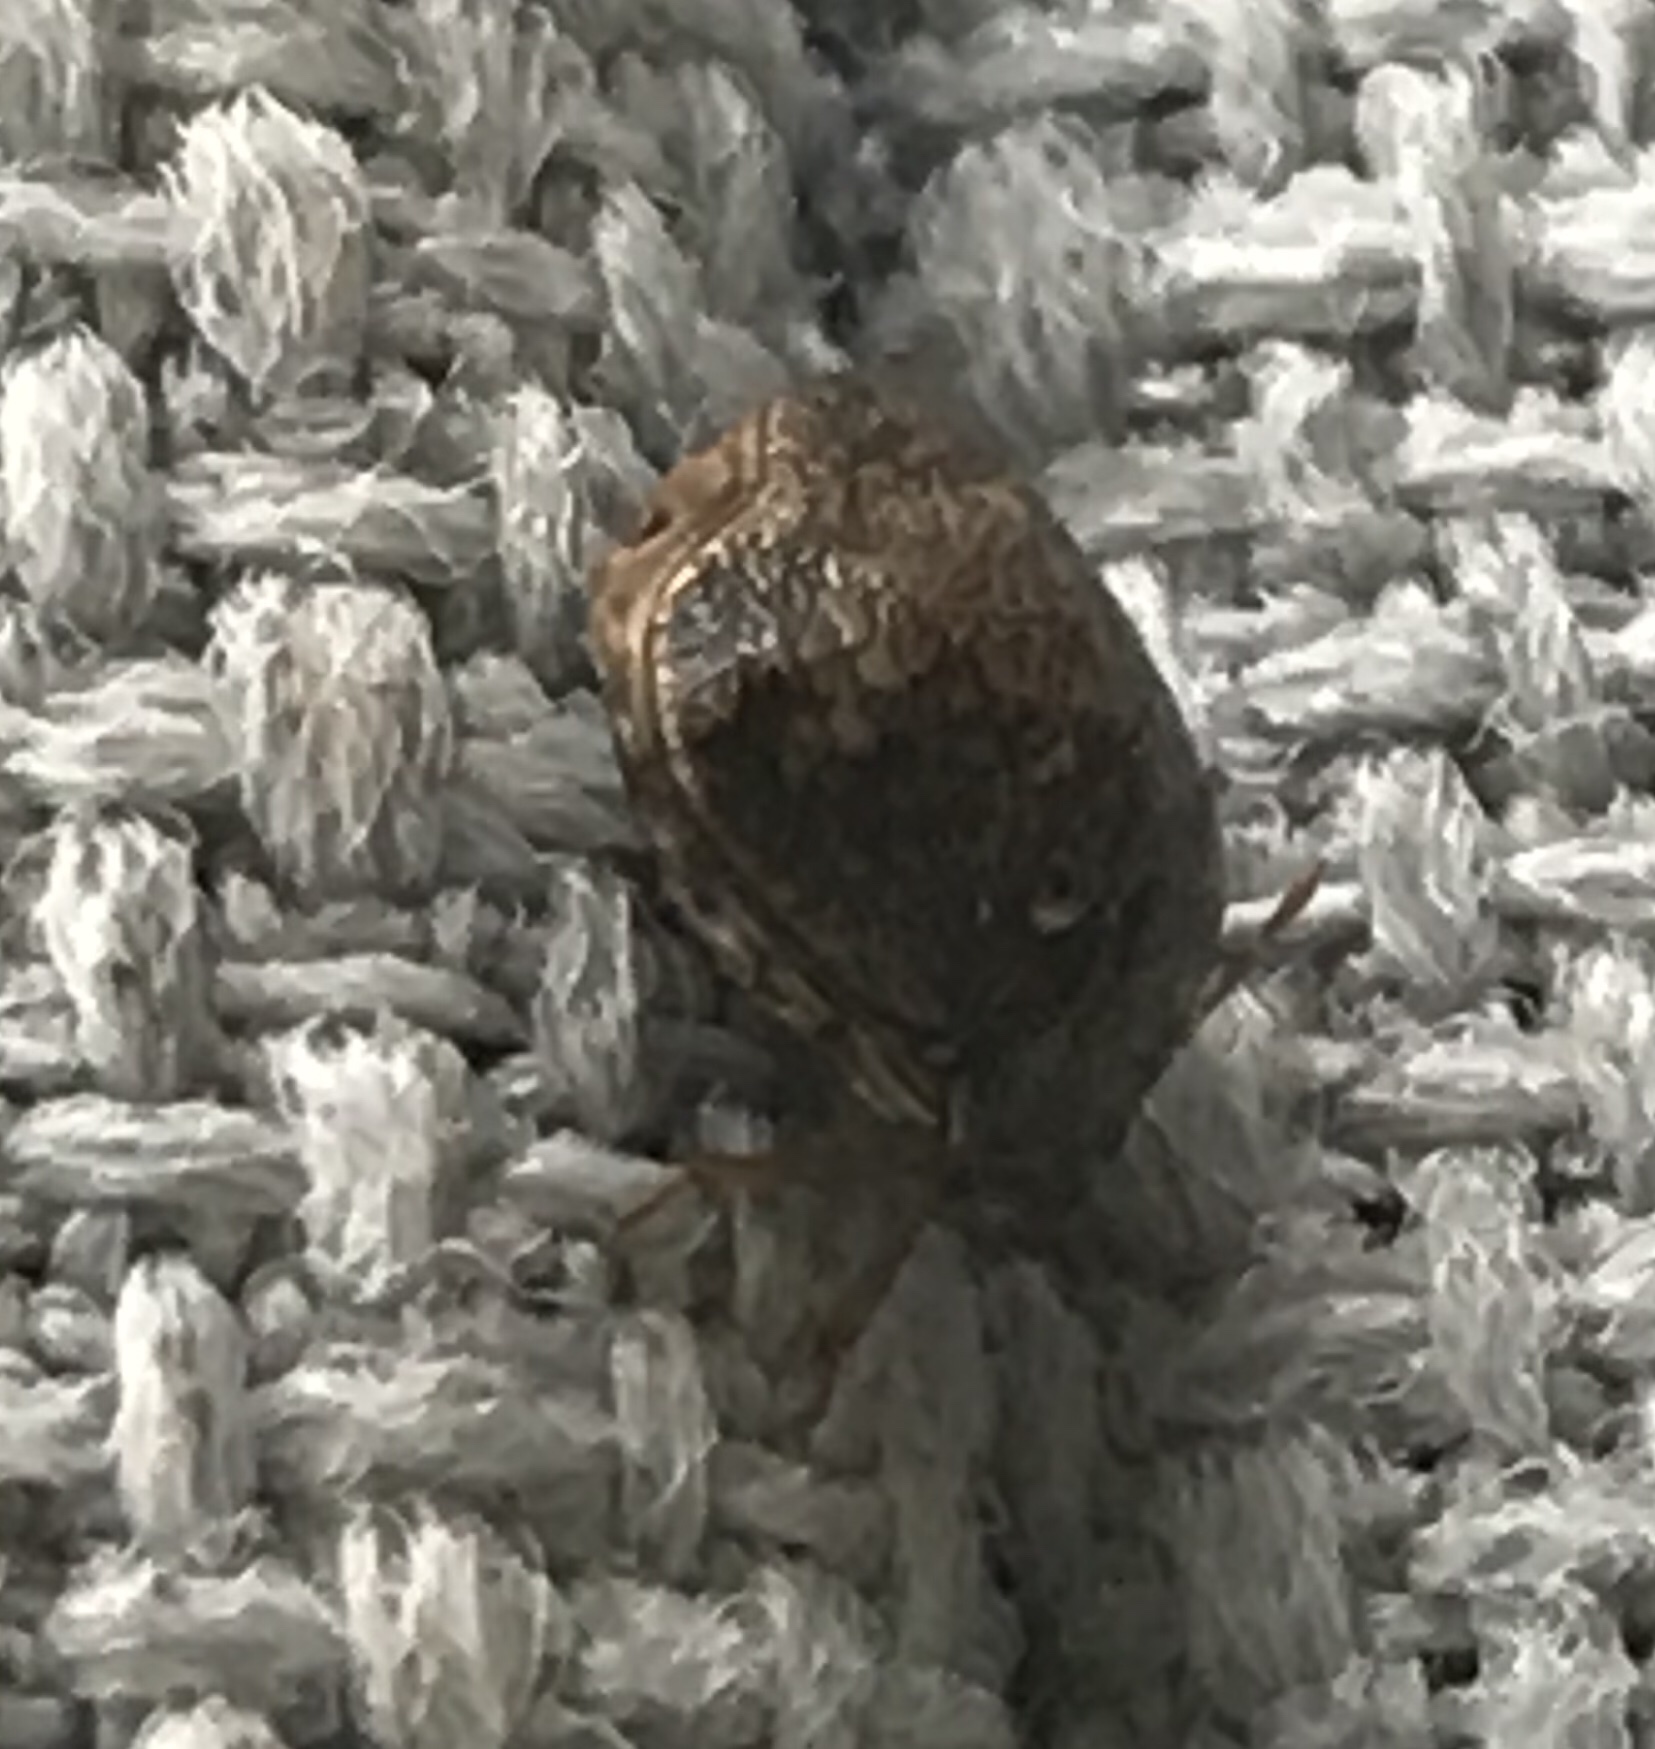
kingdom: Animalia
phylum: Arthropoda
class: Insecta
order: Hemiptera
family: Plataspidae
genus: Megacopta
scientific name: Megacopta cribraria
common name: Bean plataspid
